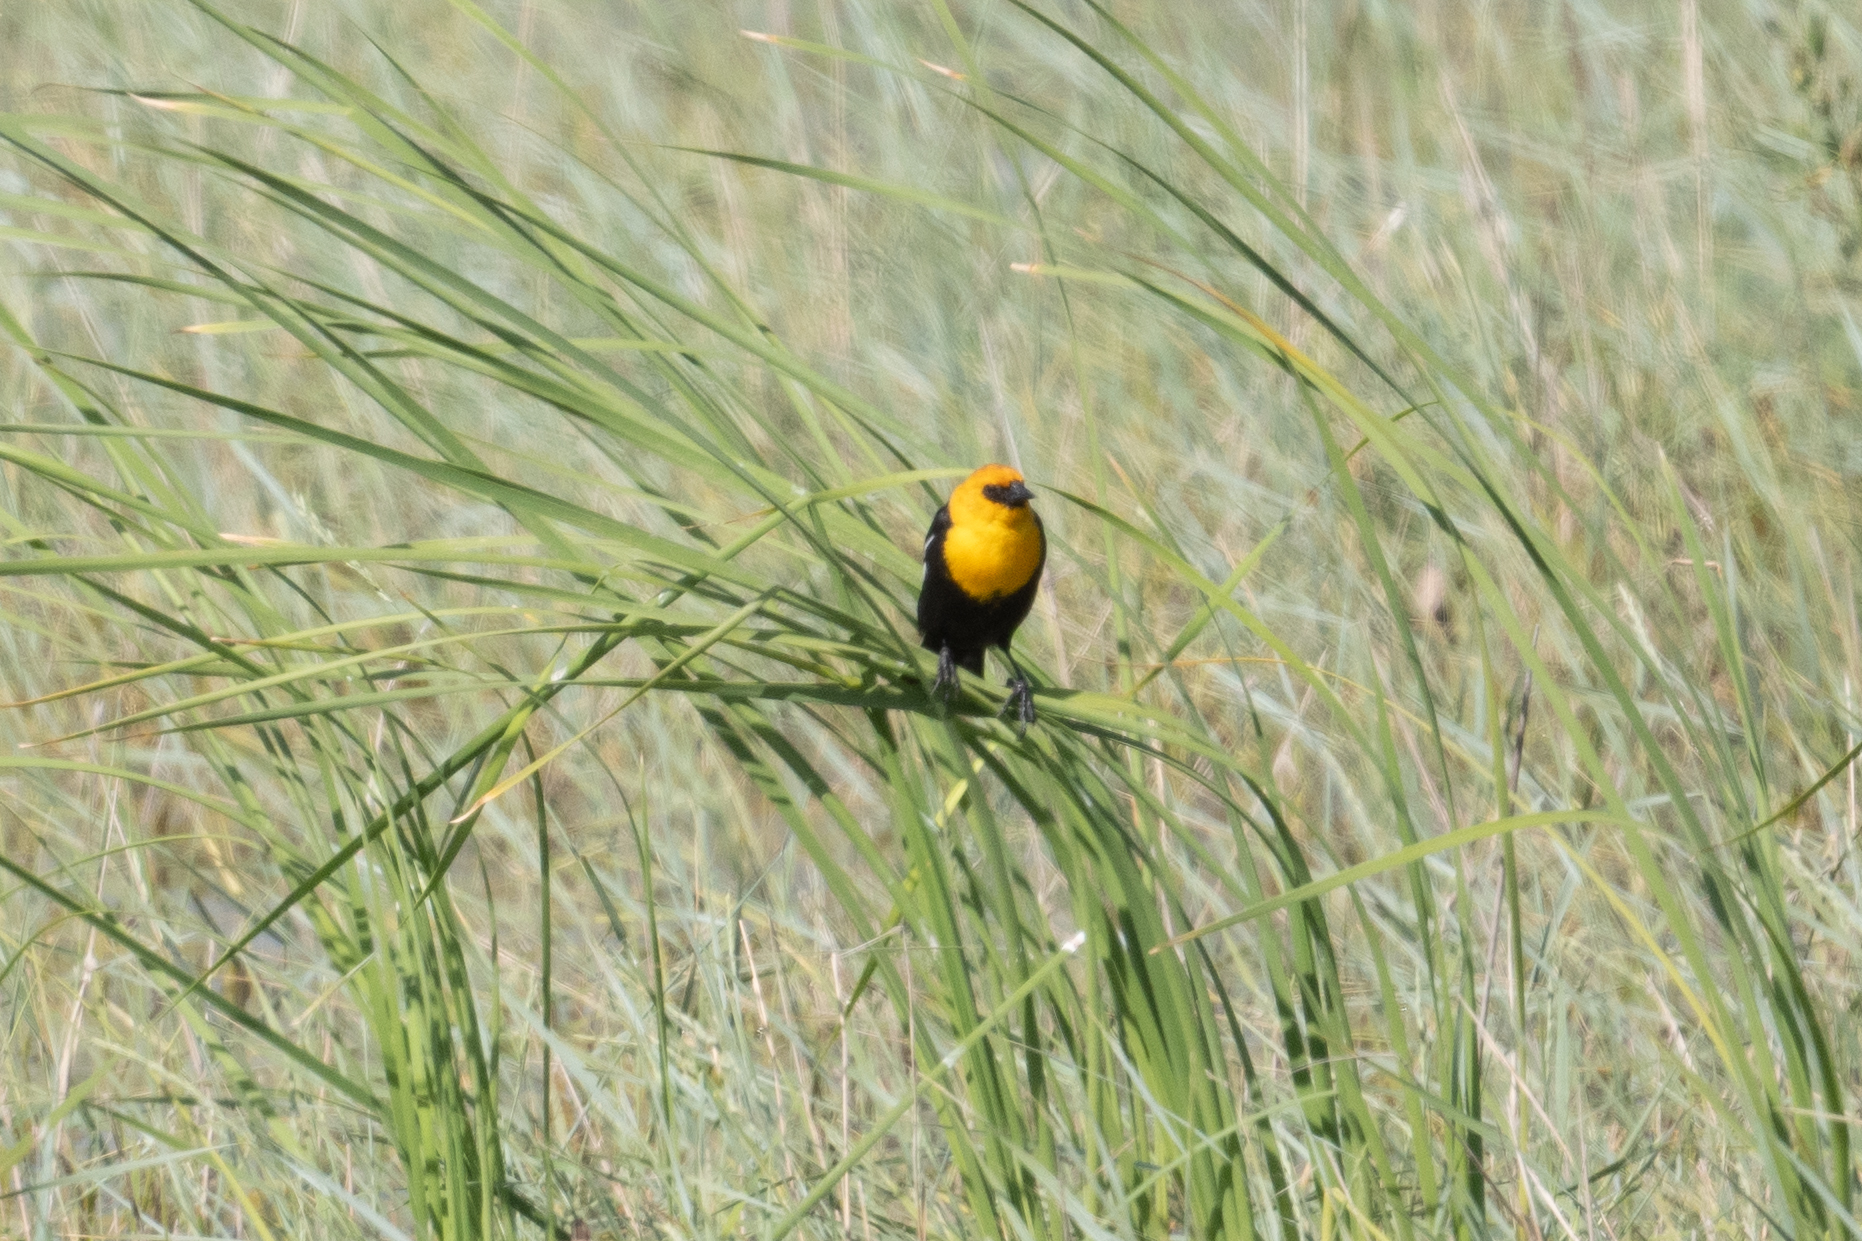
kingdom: Animalia
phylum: Chordata
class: Aves
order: Passeriformes
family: Icteridae
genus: Xanthocephalus
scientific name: Xanthocephalus xanthocephalus
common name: Yellow-headed blackbird
